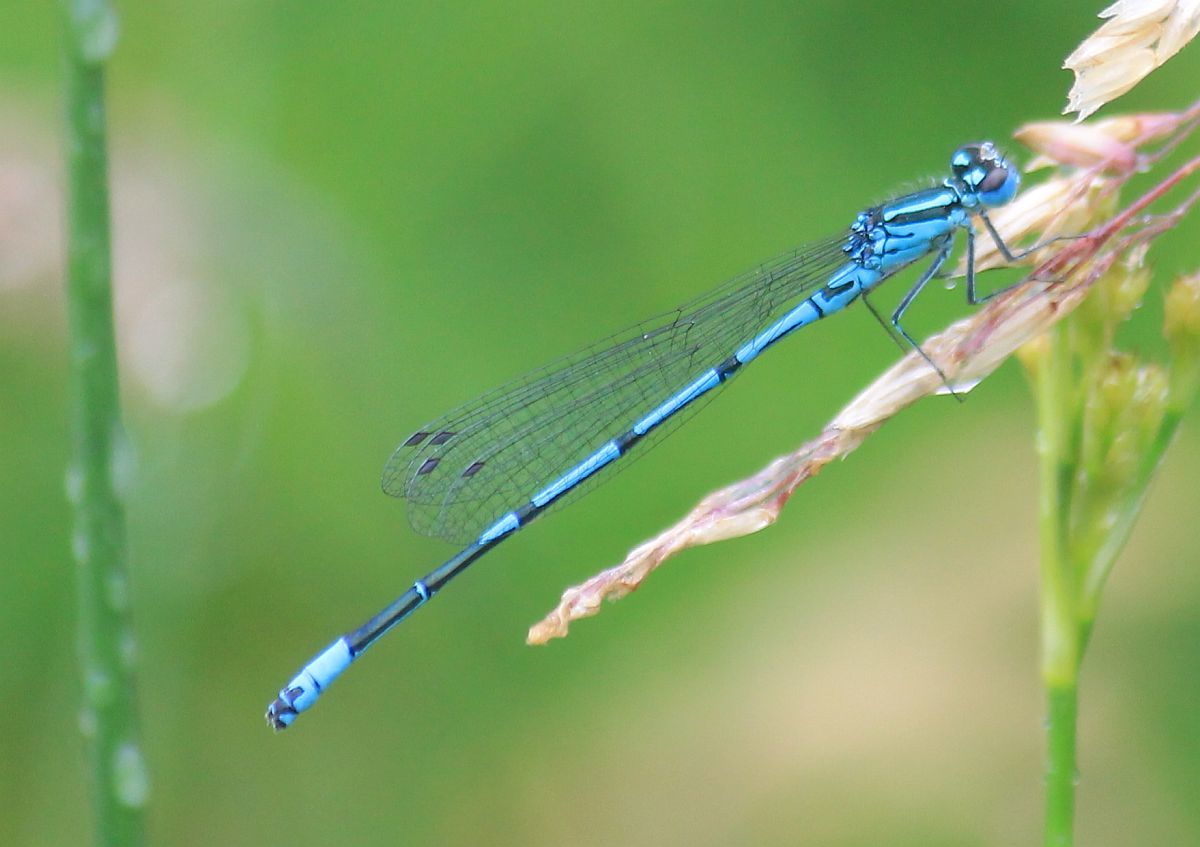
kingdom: Animalia
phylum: Arthropoda
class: Insecta
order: Odonata
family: Coenagrionidae
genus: Coenagrion
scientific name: Coenagrion puella
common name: Azure damselfly
